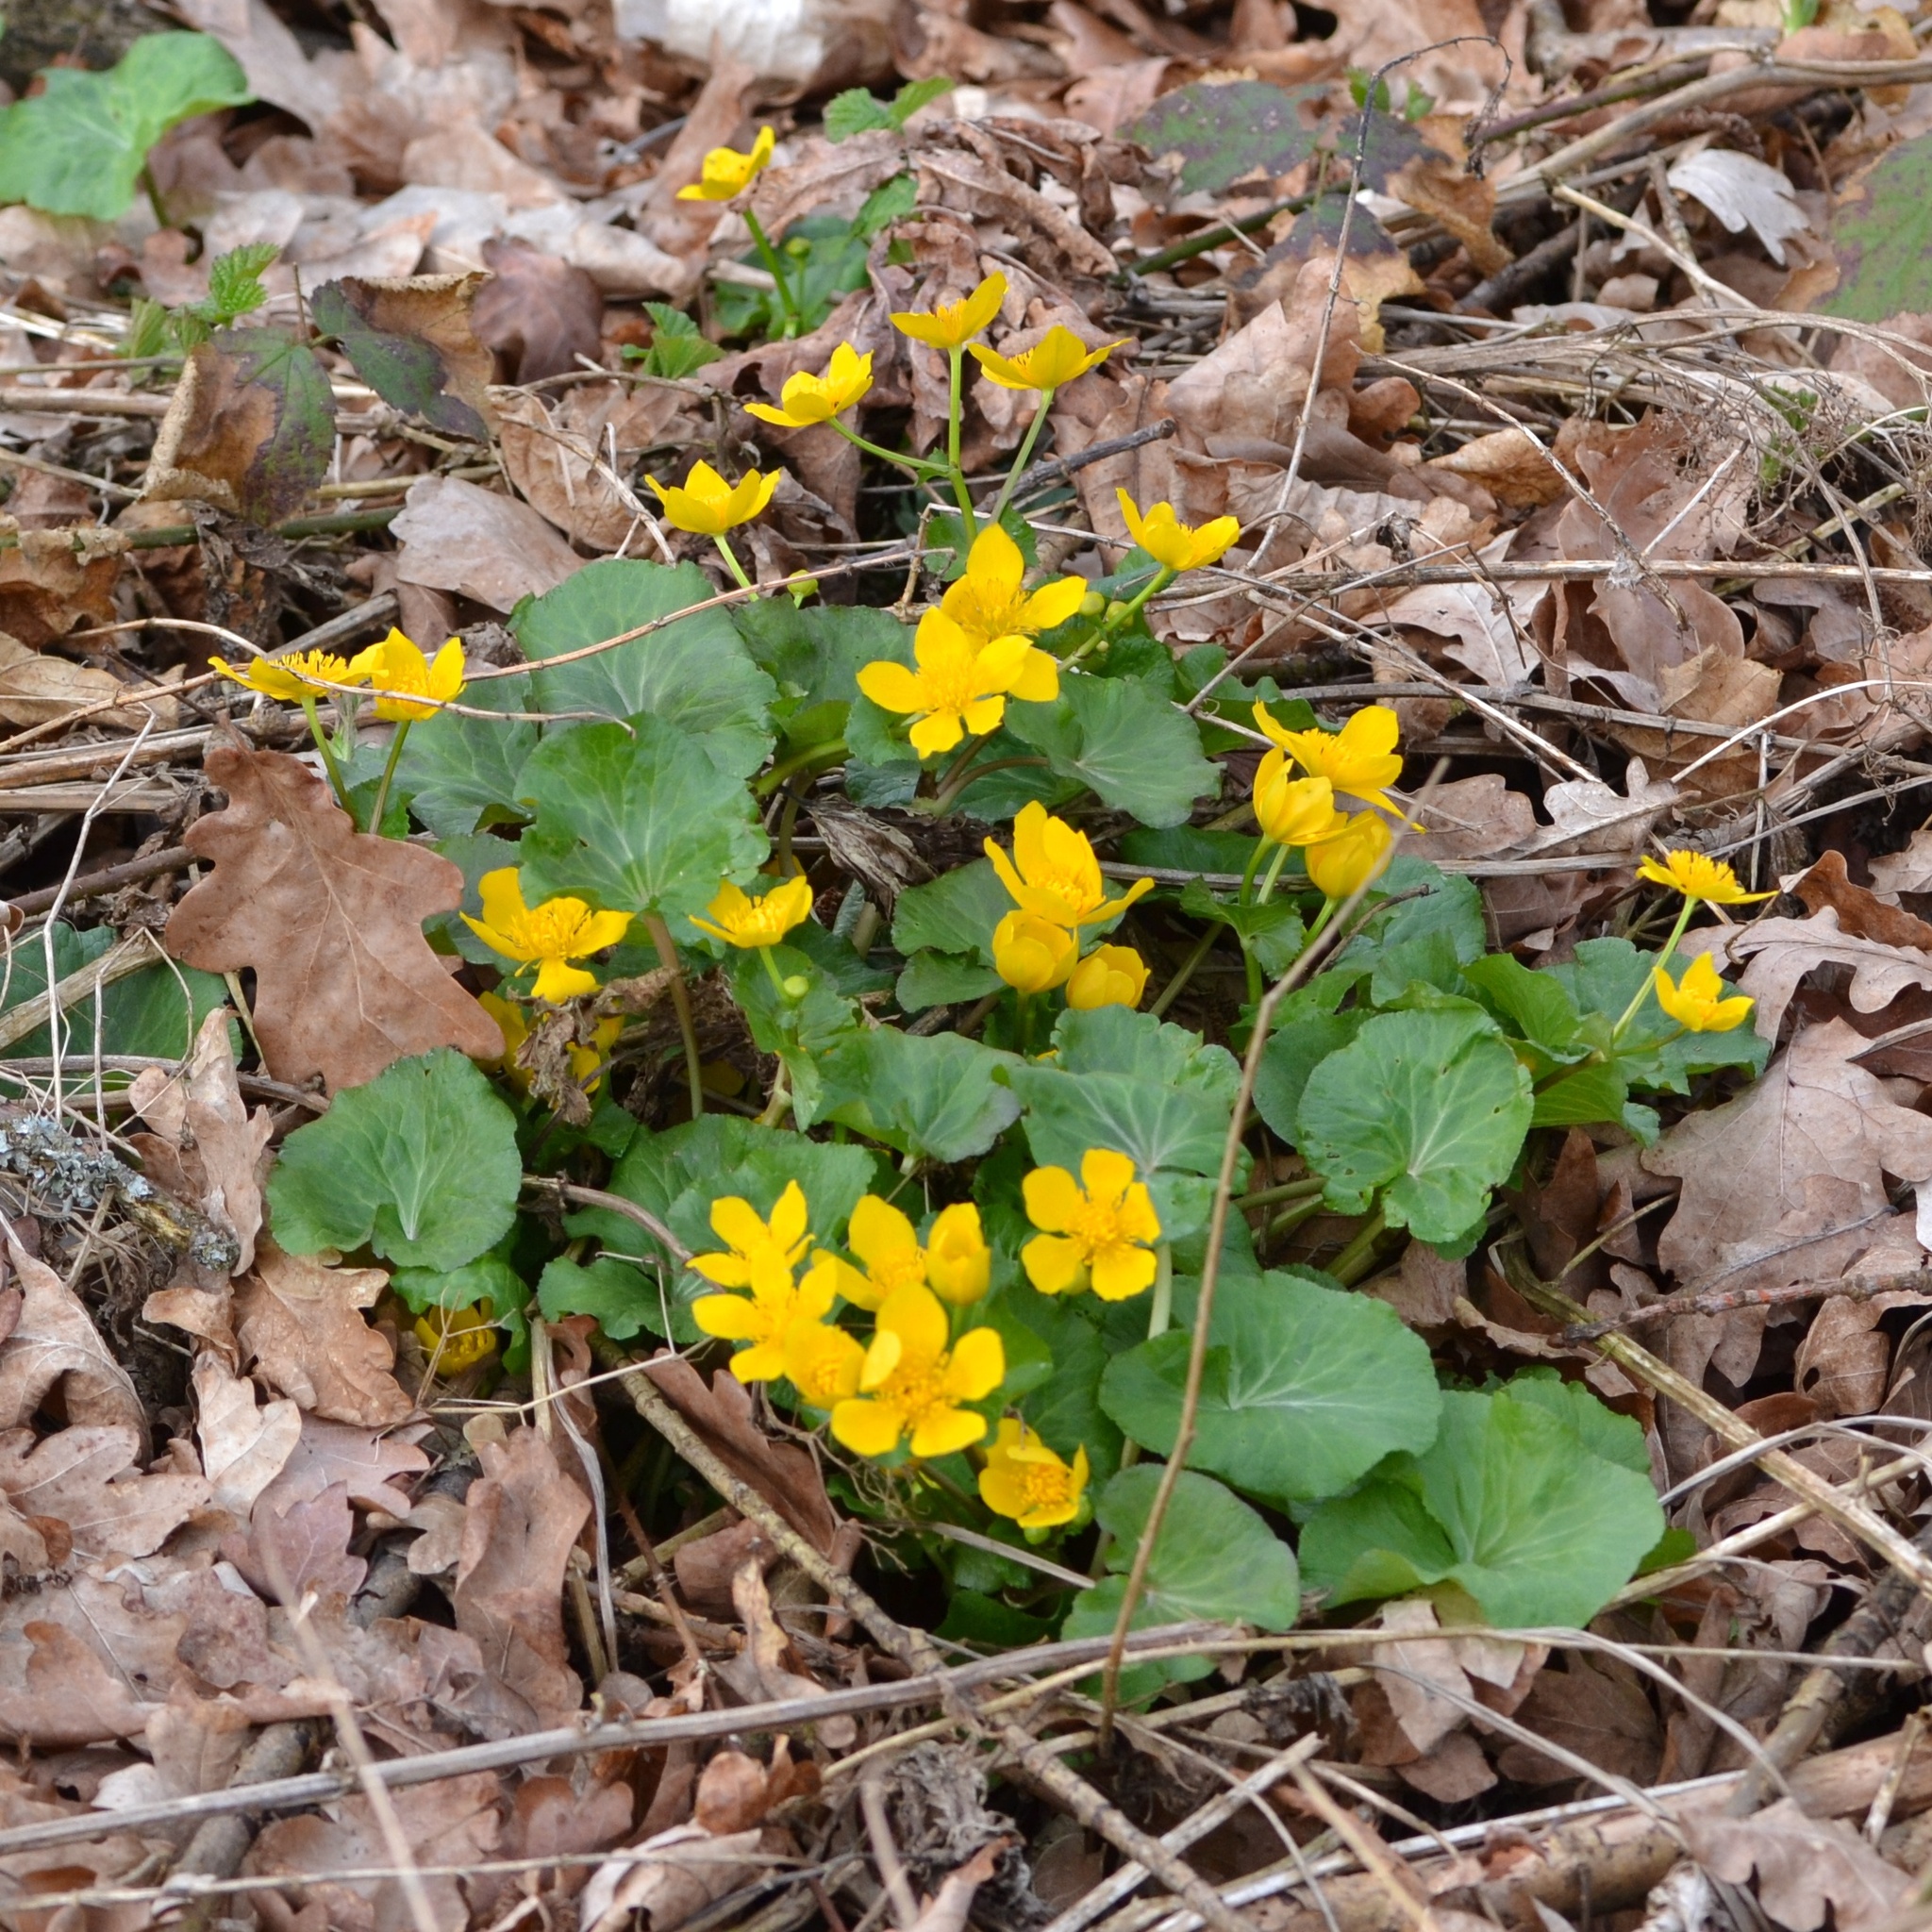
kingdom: Plantae
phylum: Tracheophyta
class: Magnoliopsida
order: Ranunculales
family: Ranunculaceae
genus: Caltha
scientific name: Caltha palustris
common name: Marsh marigold
